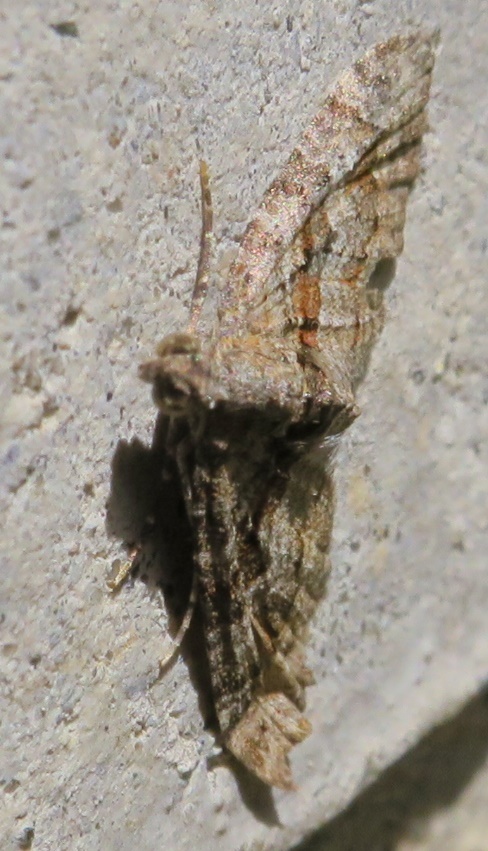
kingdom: Animalia
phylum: Arthropoda
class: Insecta
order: Lepidoptera
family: Geometridae
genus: Phrissogonus
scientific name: Phrissogonus laticostata
